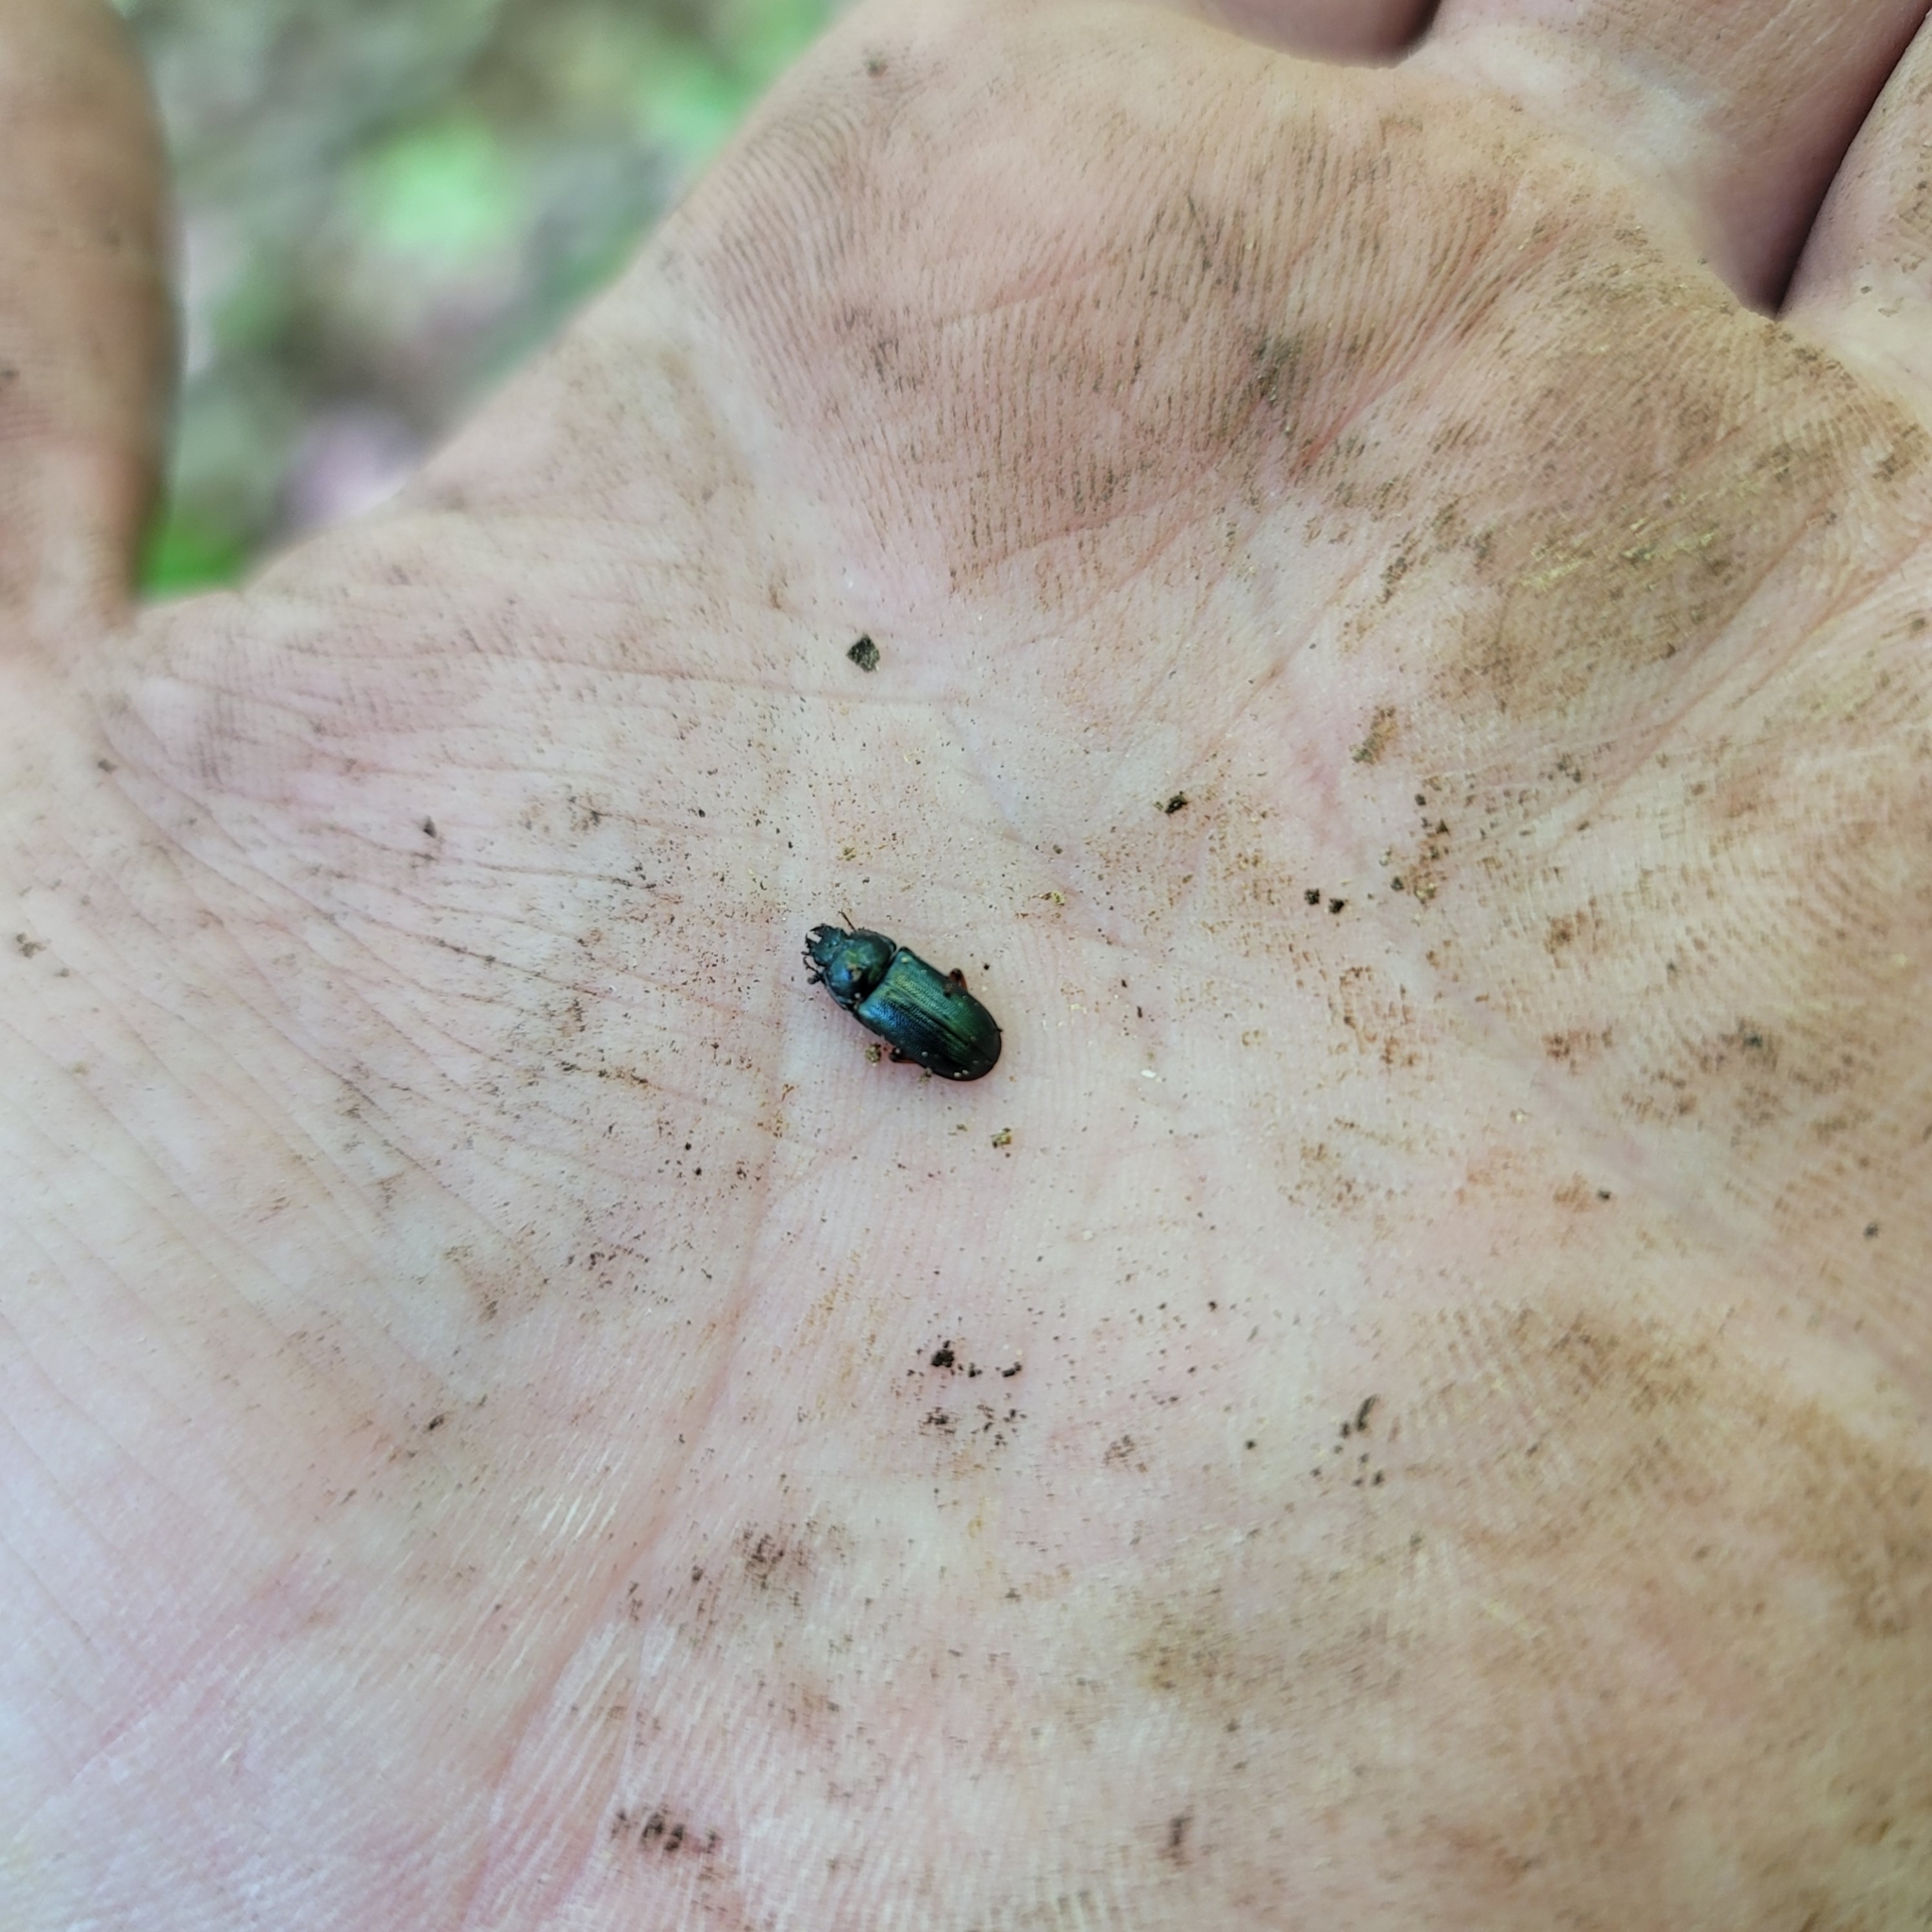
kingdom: Animalia
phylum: Arthropoda
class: Insecta
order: Coleoptera
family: Lucanidae
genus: Platycerus
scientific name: Platycerus quercus
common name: Oak stag beetle
